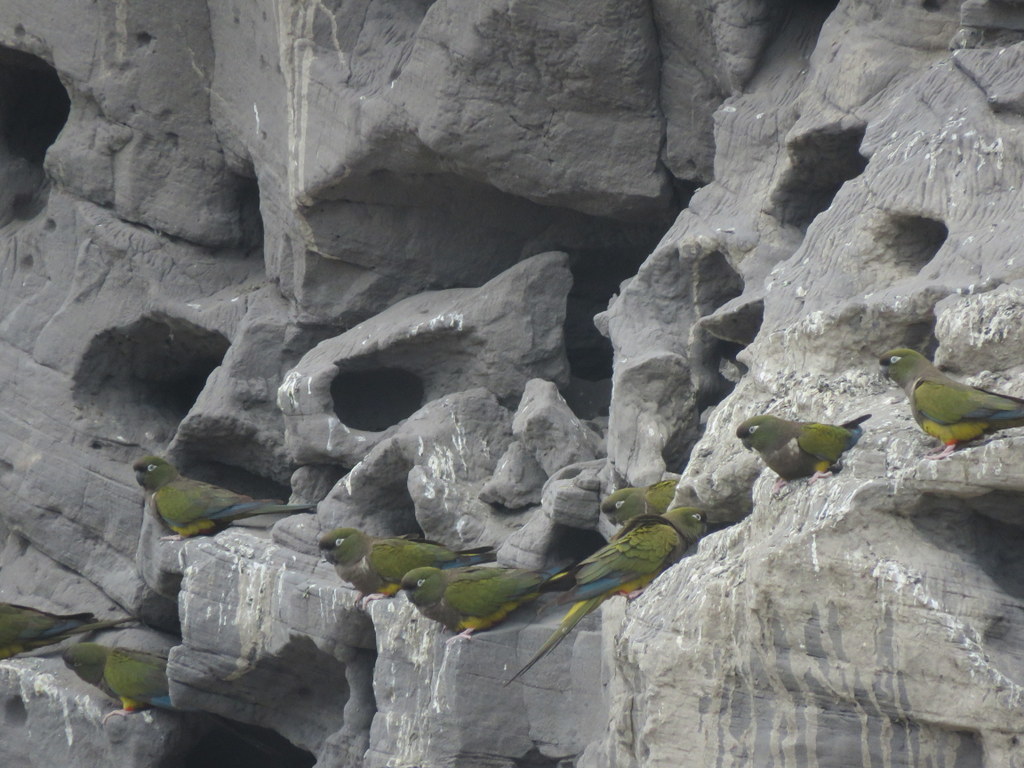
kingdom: Animalia
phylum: Chordata
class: Aves
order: Psittaciformes
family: Psittacidae
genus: Cyanoliseus
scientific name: Cyanoliseus patagonus
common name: Burrowing parrot
